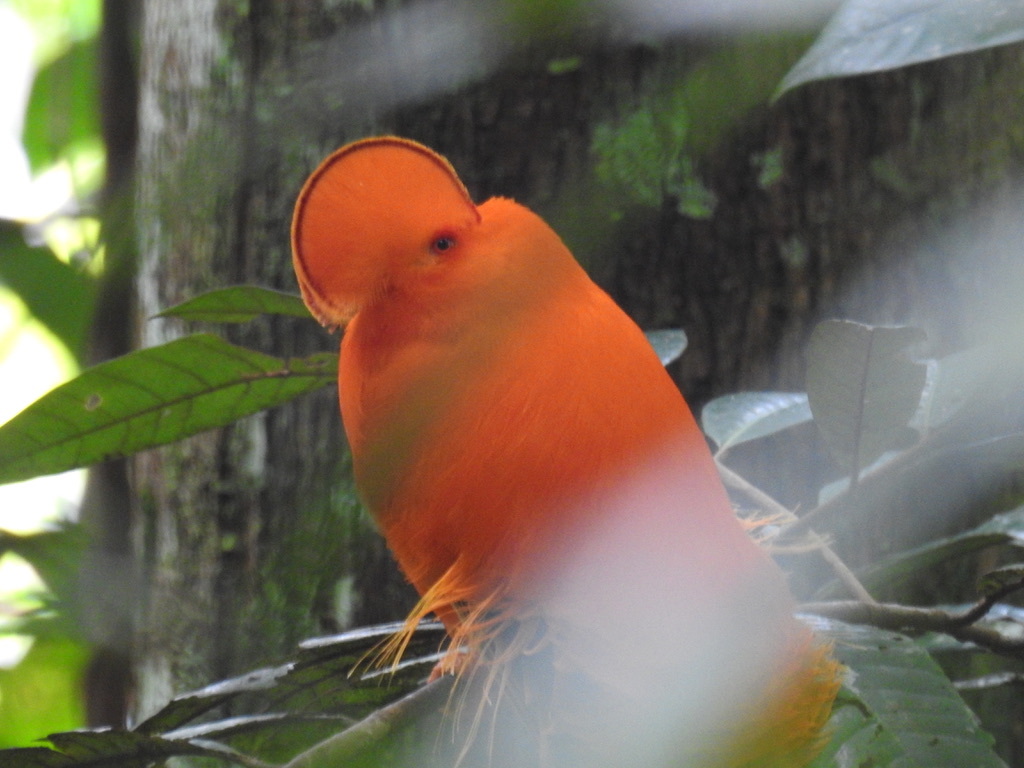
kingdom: Animalia
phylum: Chordata
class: Aves
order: Passeriformes
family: Cotingidae
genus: Rupicola
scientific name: Rupicola rupicola
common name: Guianan cock-of-the-rock
